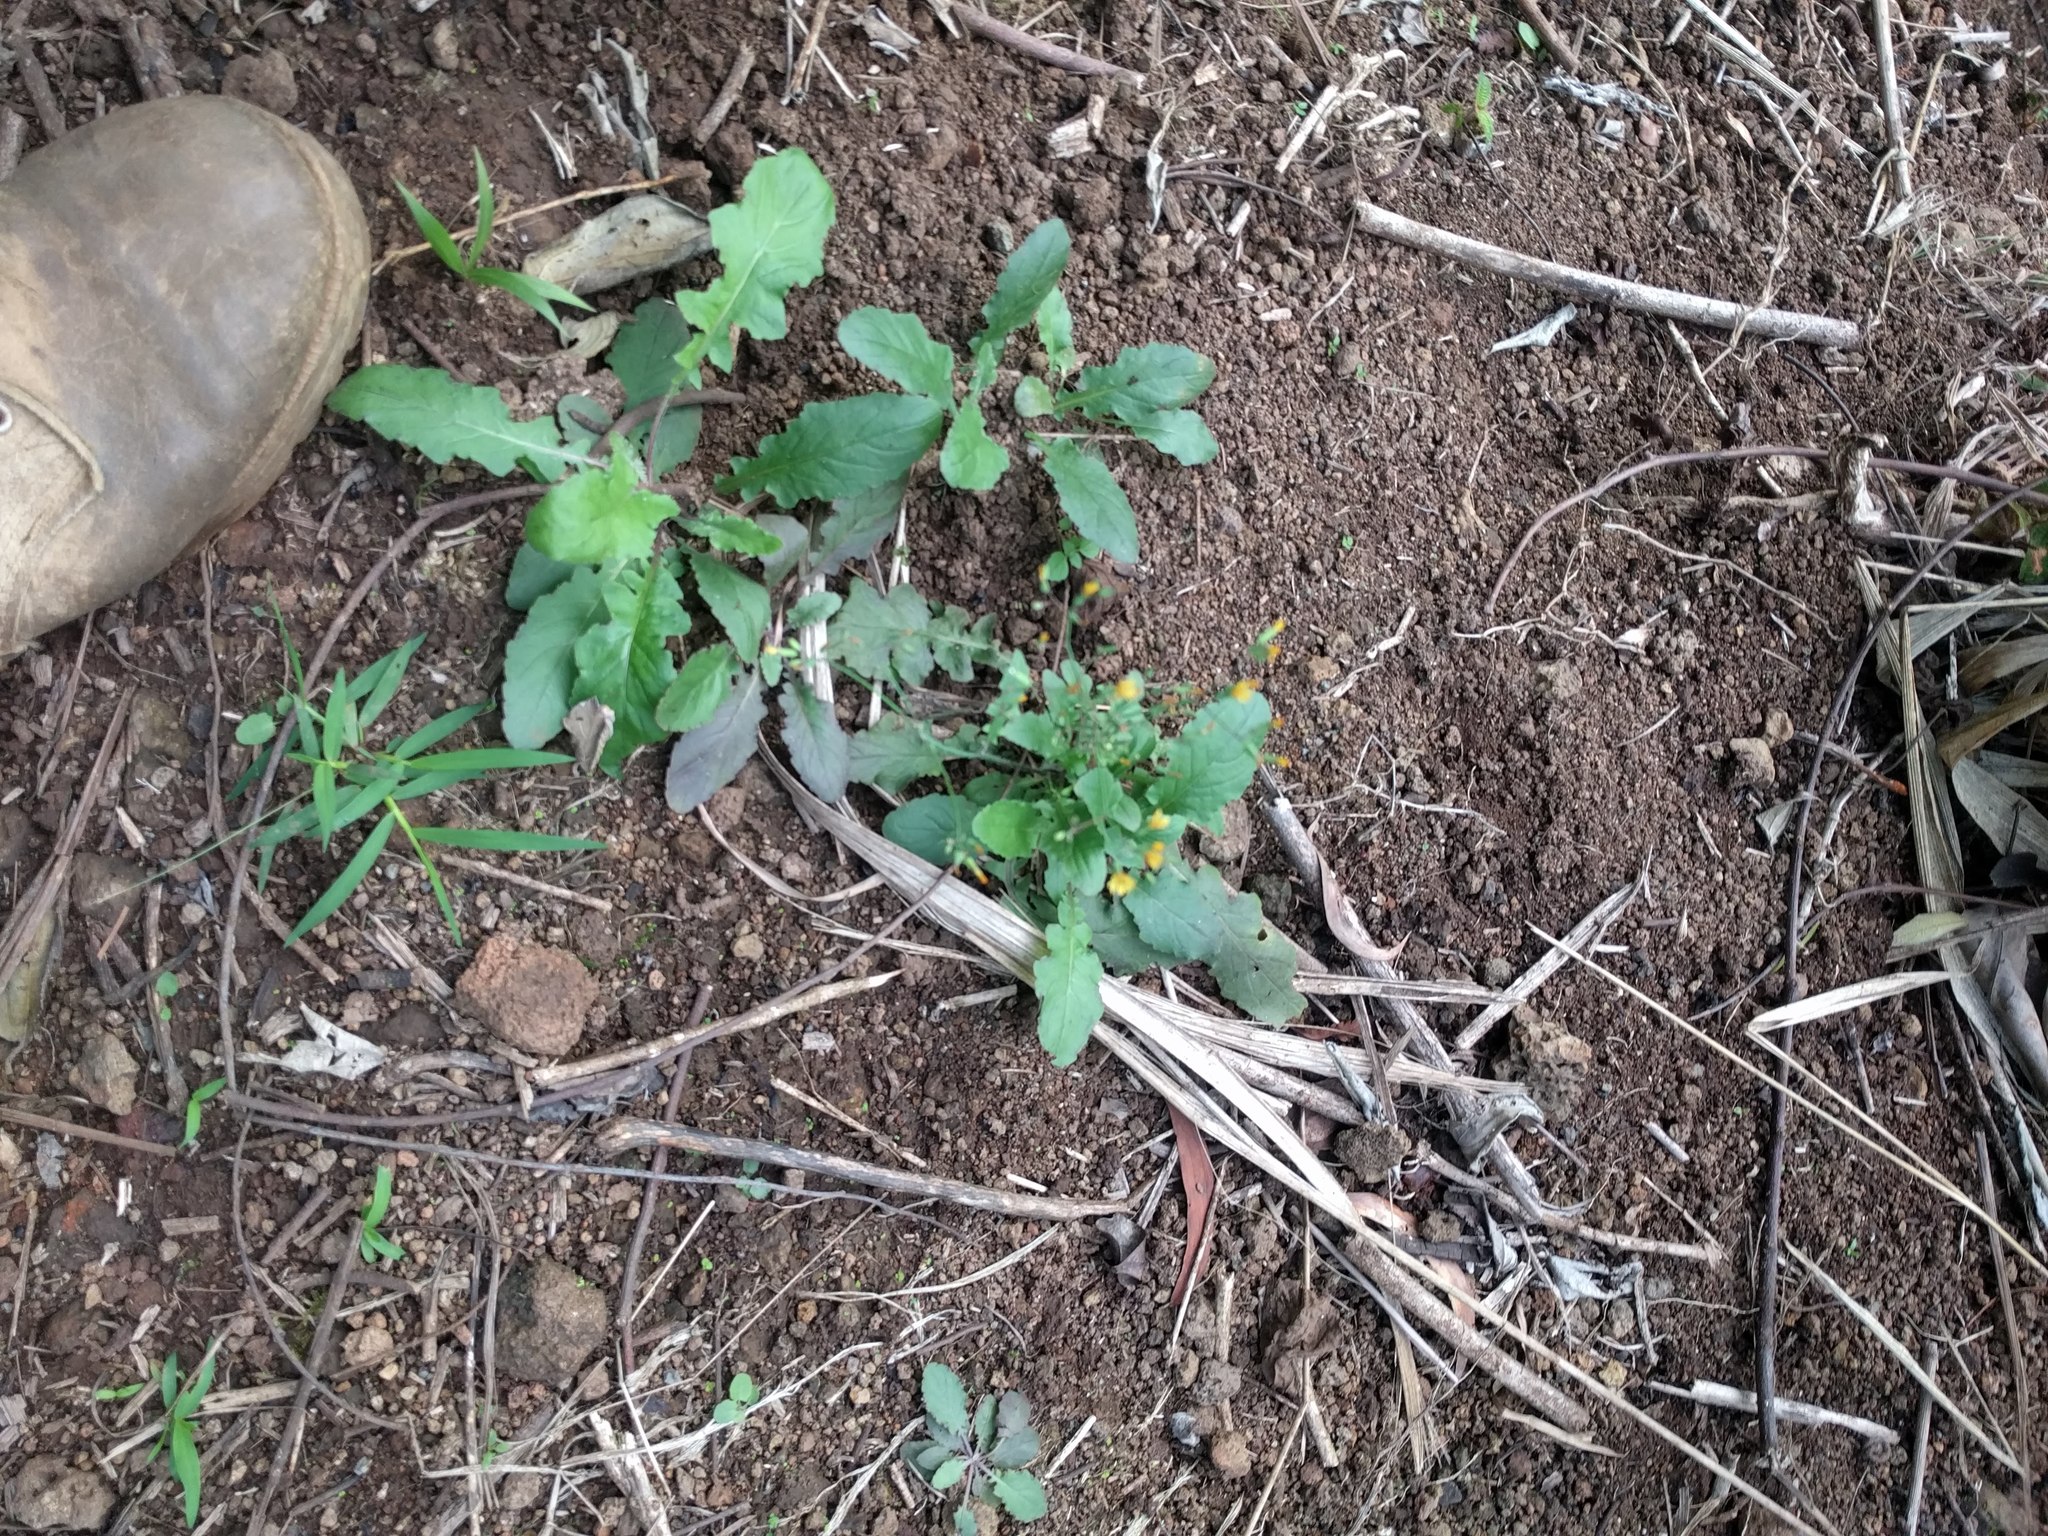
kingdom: Plantae
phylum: Tracheophyta
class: Magnoliopsida
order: Asterales
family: Asteraceae
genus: Youngia
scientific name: Youngia japonica
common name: Oriental false hawksbeard
